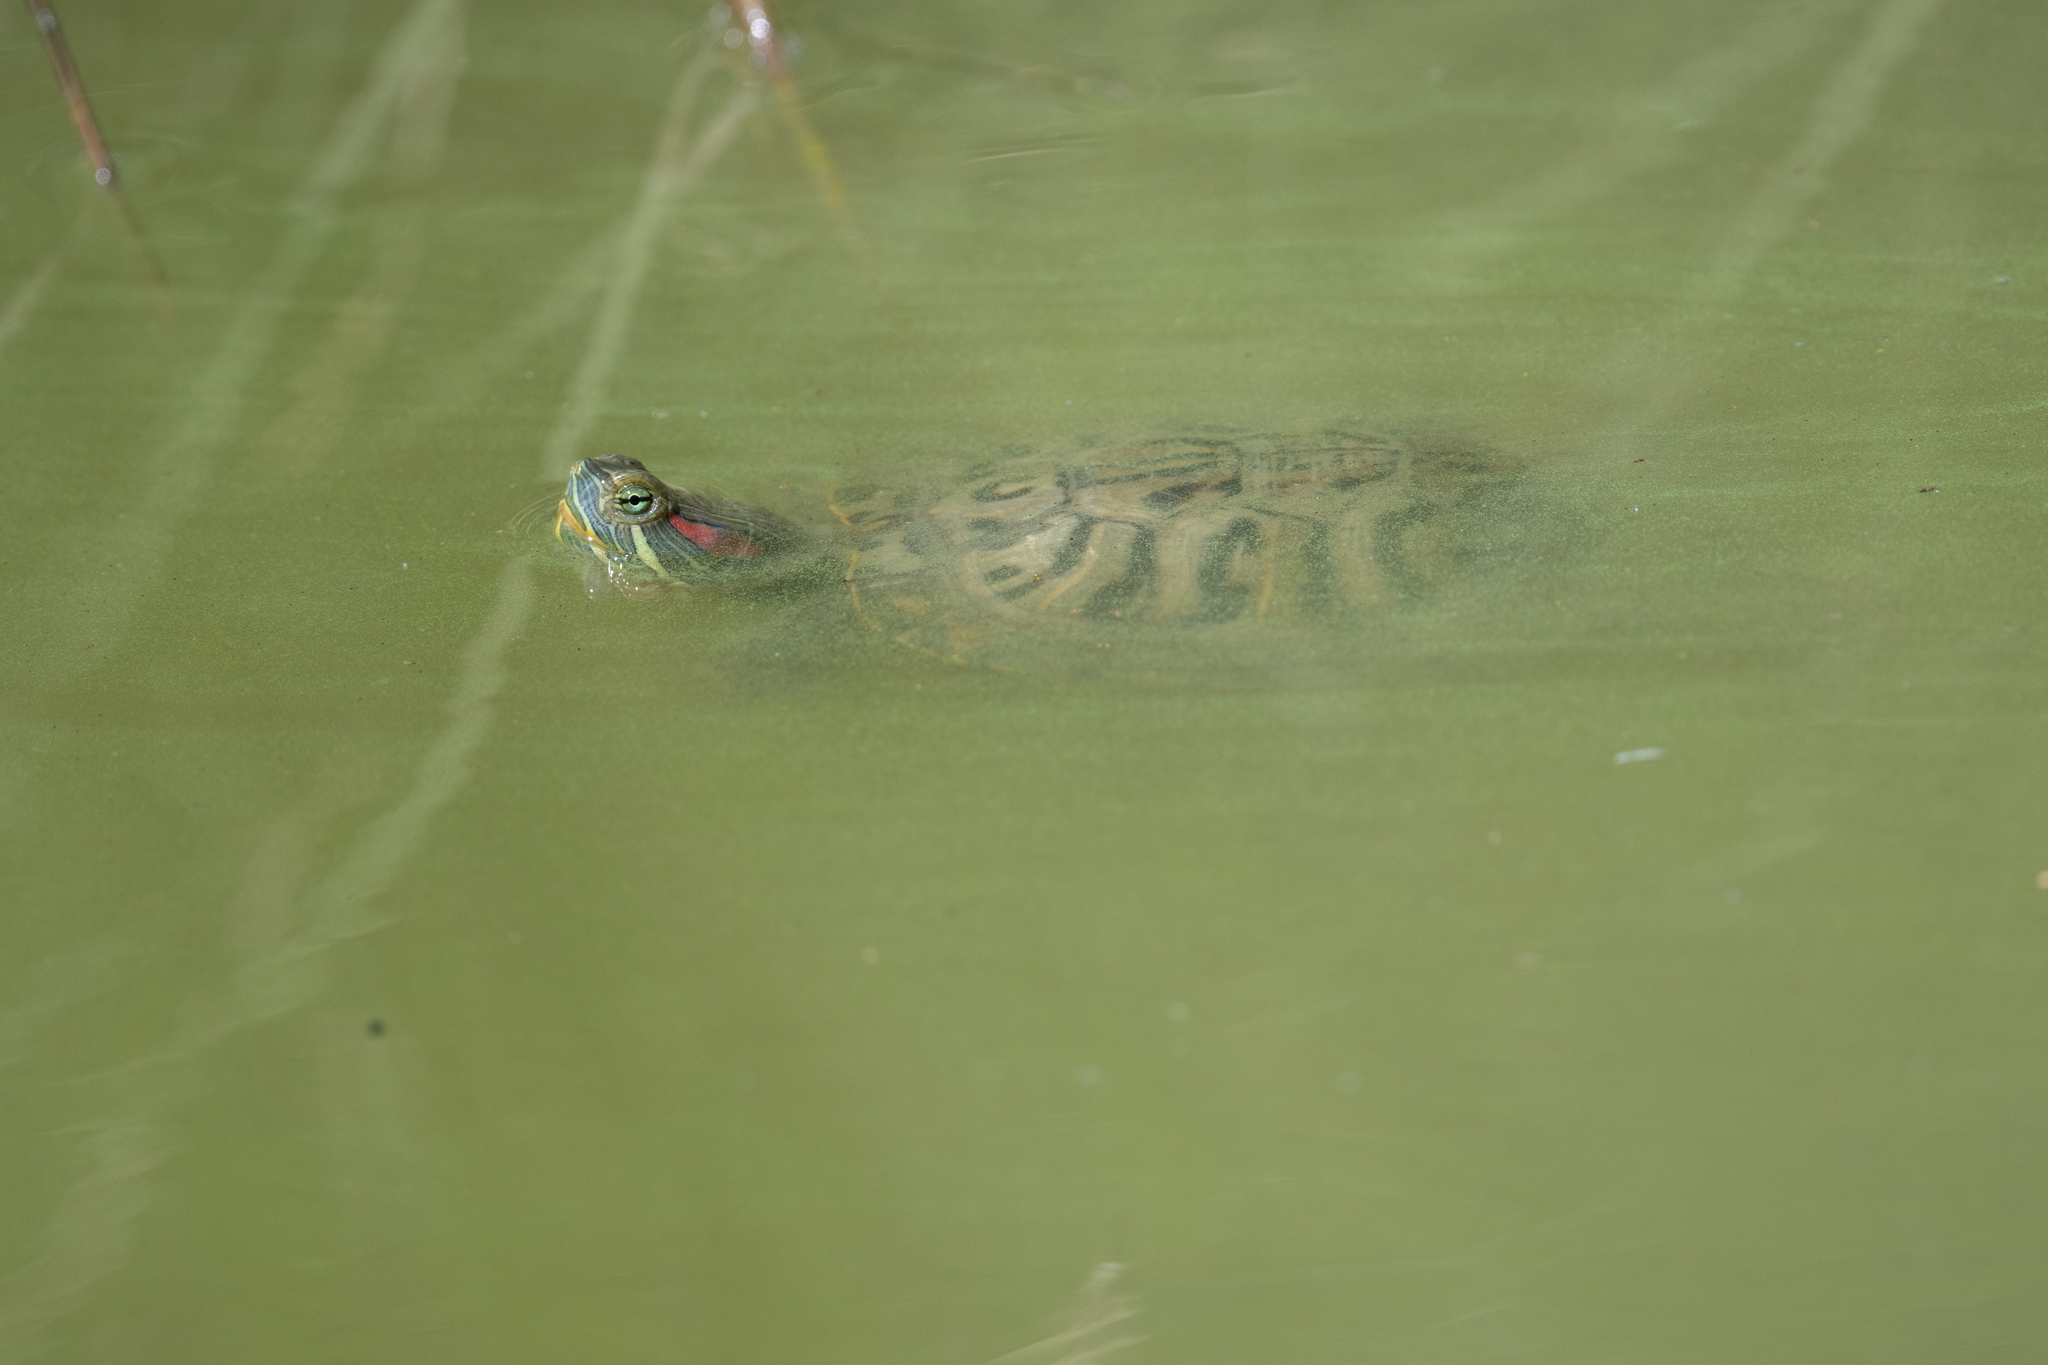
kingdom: Animalia
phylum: Chordata
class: Testudines
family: Emydidae
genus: Trachemys
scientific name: Trachemys scripta
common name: Slider
